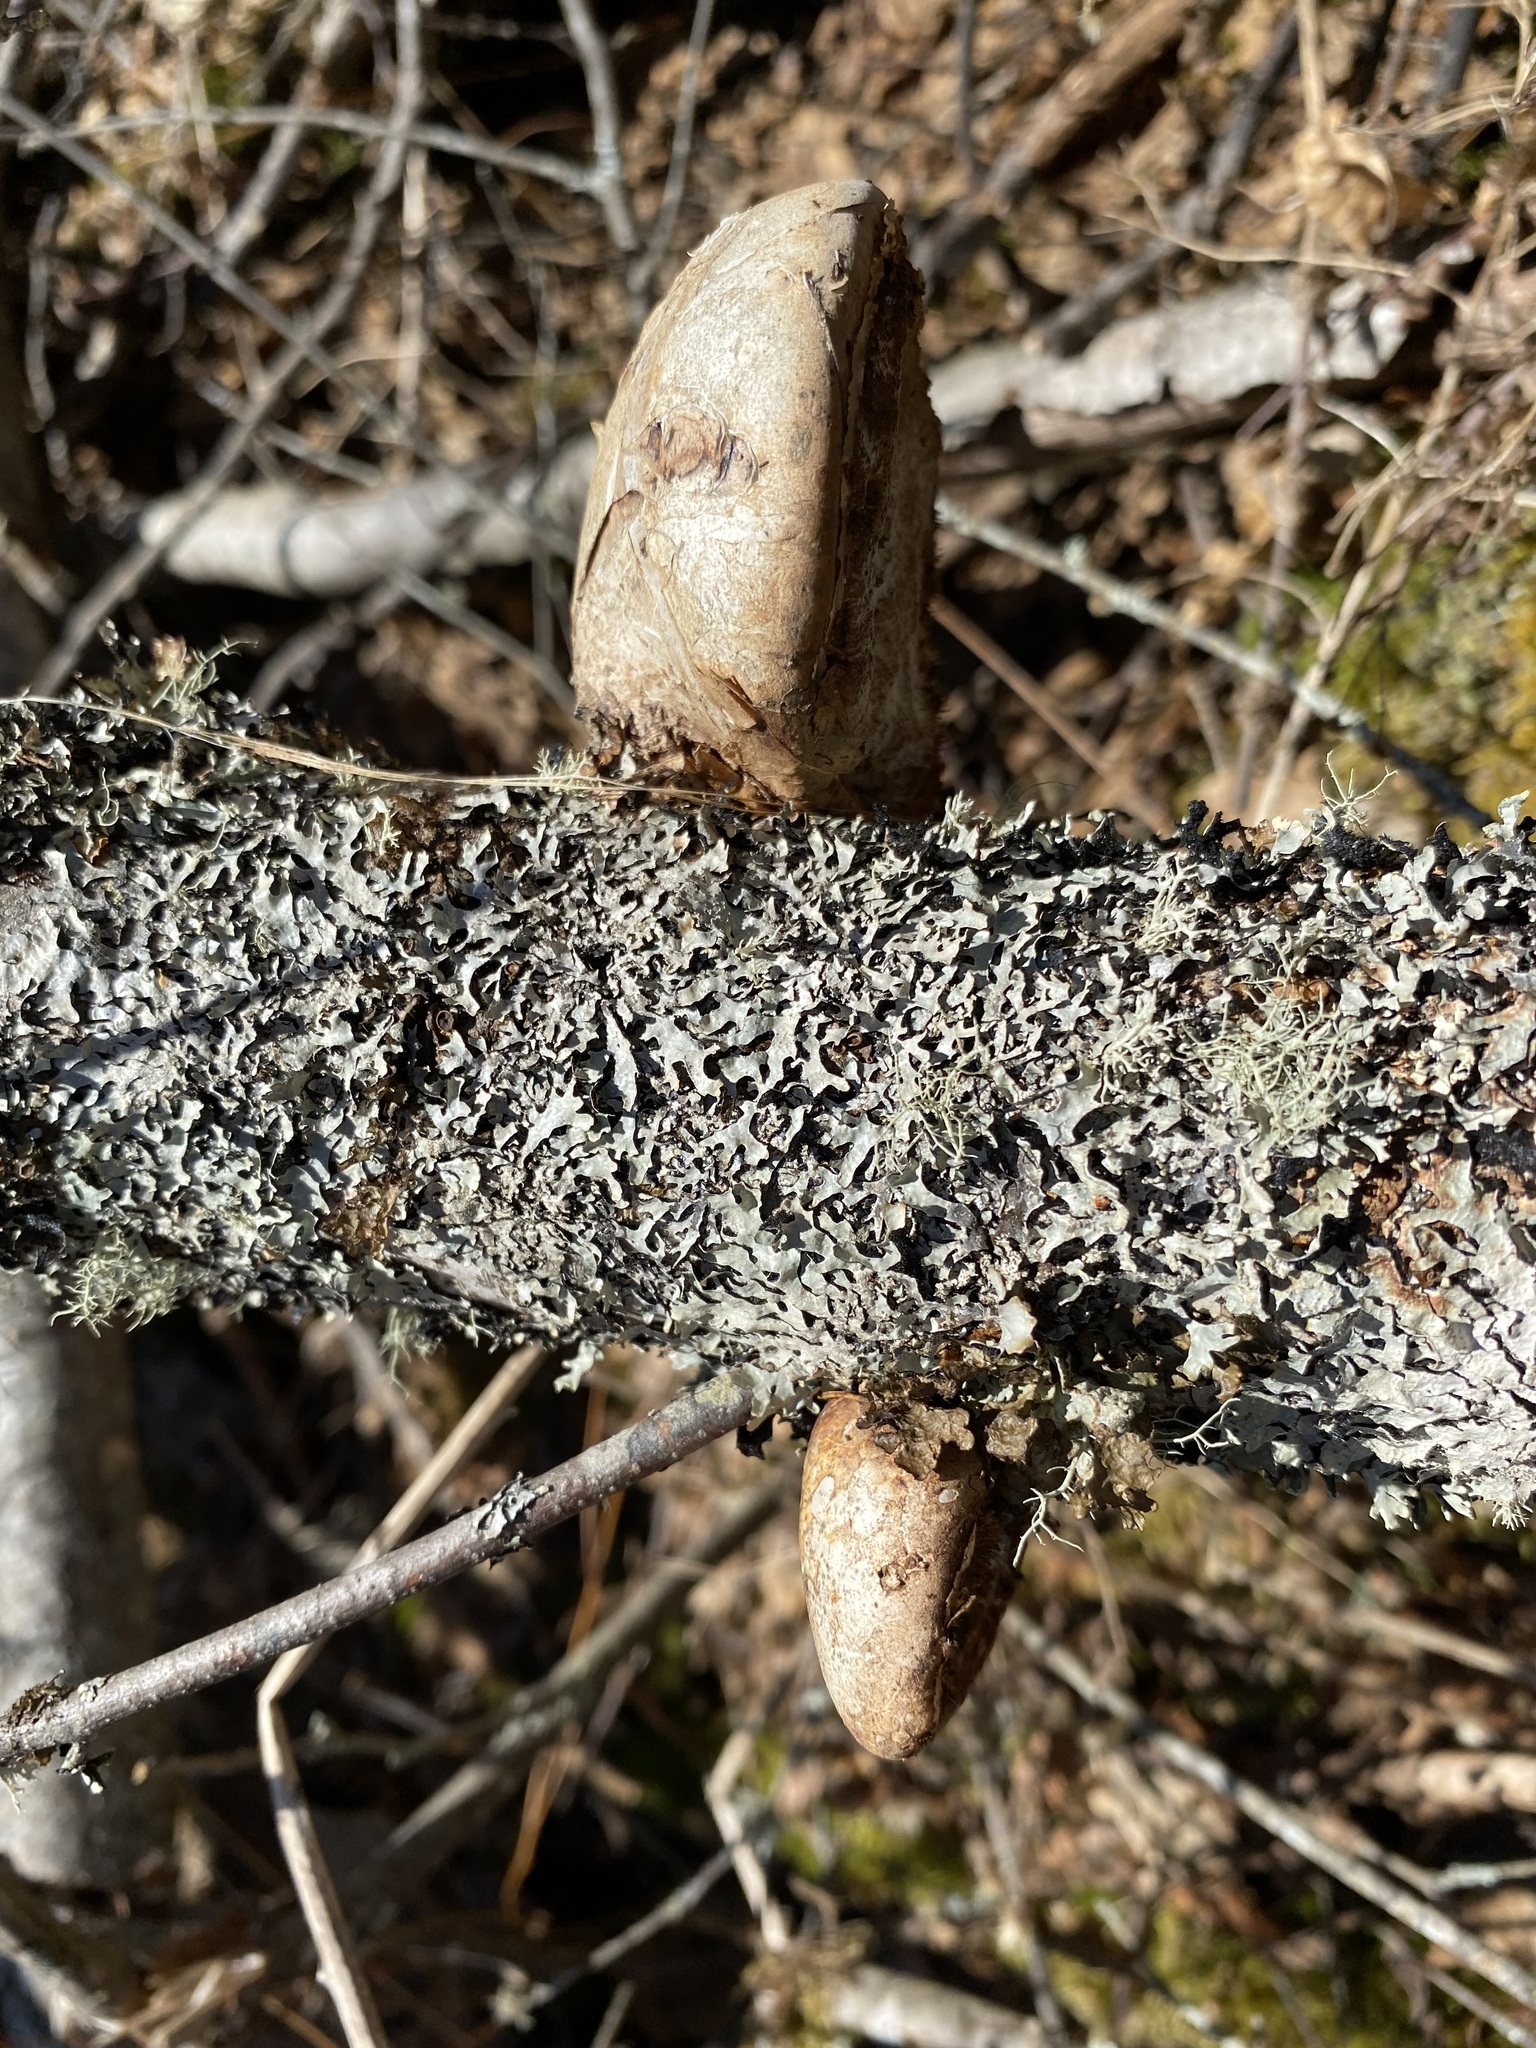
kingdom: Fungi
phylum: Basidiomycota
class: Agaricomycetes
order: Polyporales
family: Fomitopsidaceae
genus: Fomitopsis
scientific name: Fomitopsis betulina
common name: Birch polypore
